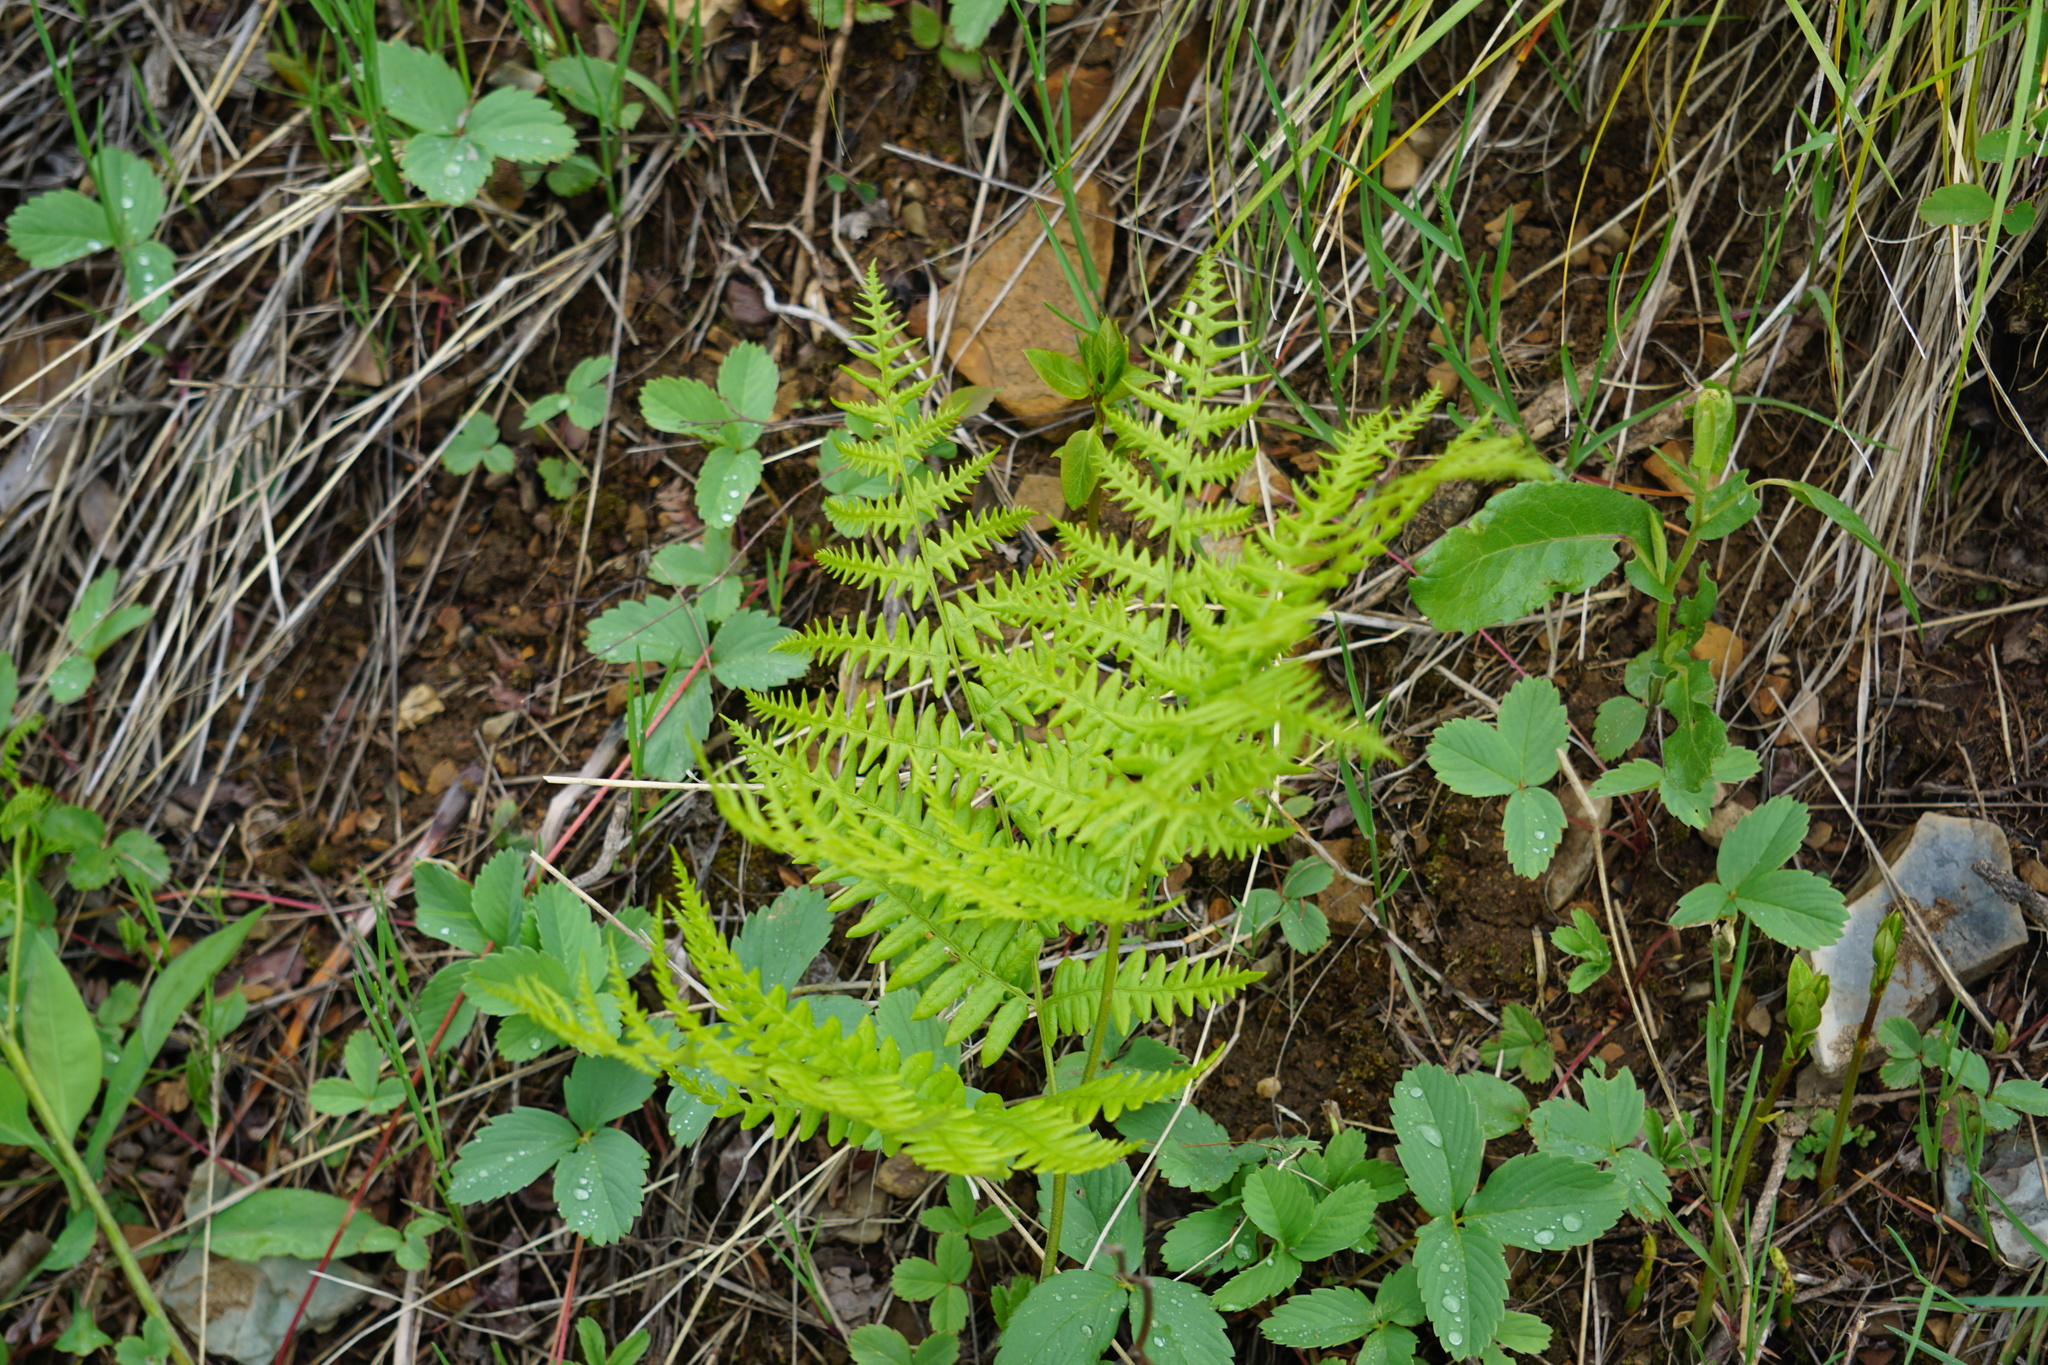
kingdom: Plantae
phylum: Tracheophyta
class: Polypodiopsida
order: Polypodiales
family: Dennstaedtiaceae
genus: Pteridium
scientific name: Pteridium aquilinum
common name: Bracken
